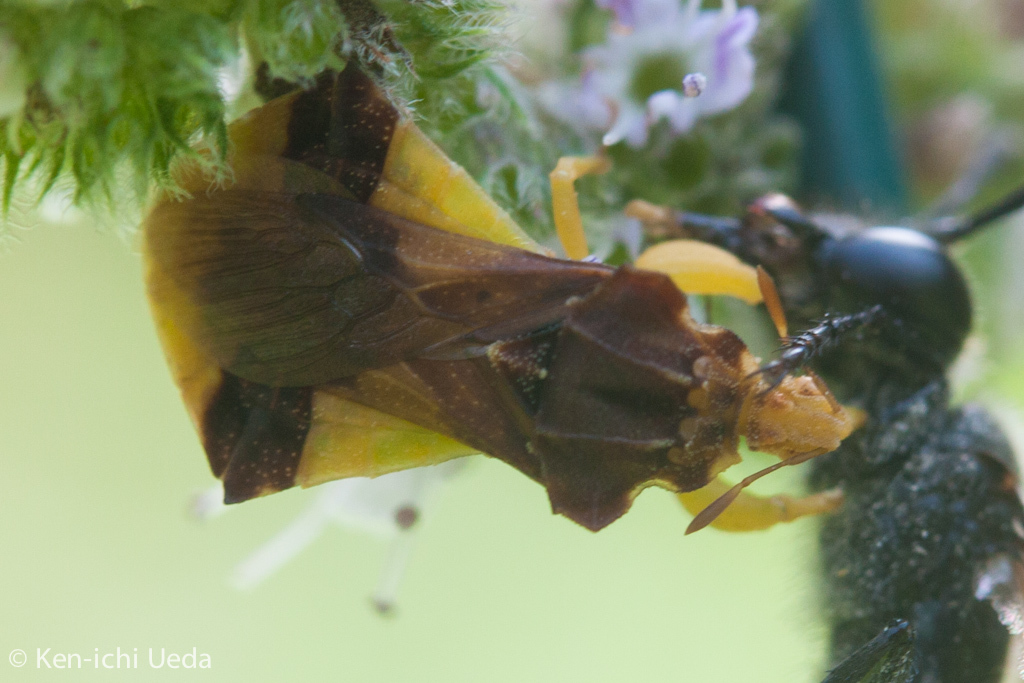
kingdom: Animalia
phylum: Arthropoda
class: Insecta
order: Hemiptera
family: Reduviidae
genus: Phymata
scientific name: Phymata pennsylvanica
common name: Pennsylvania ambush bug
